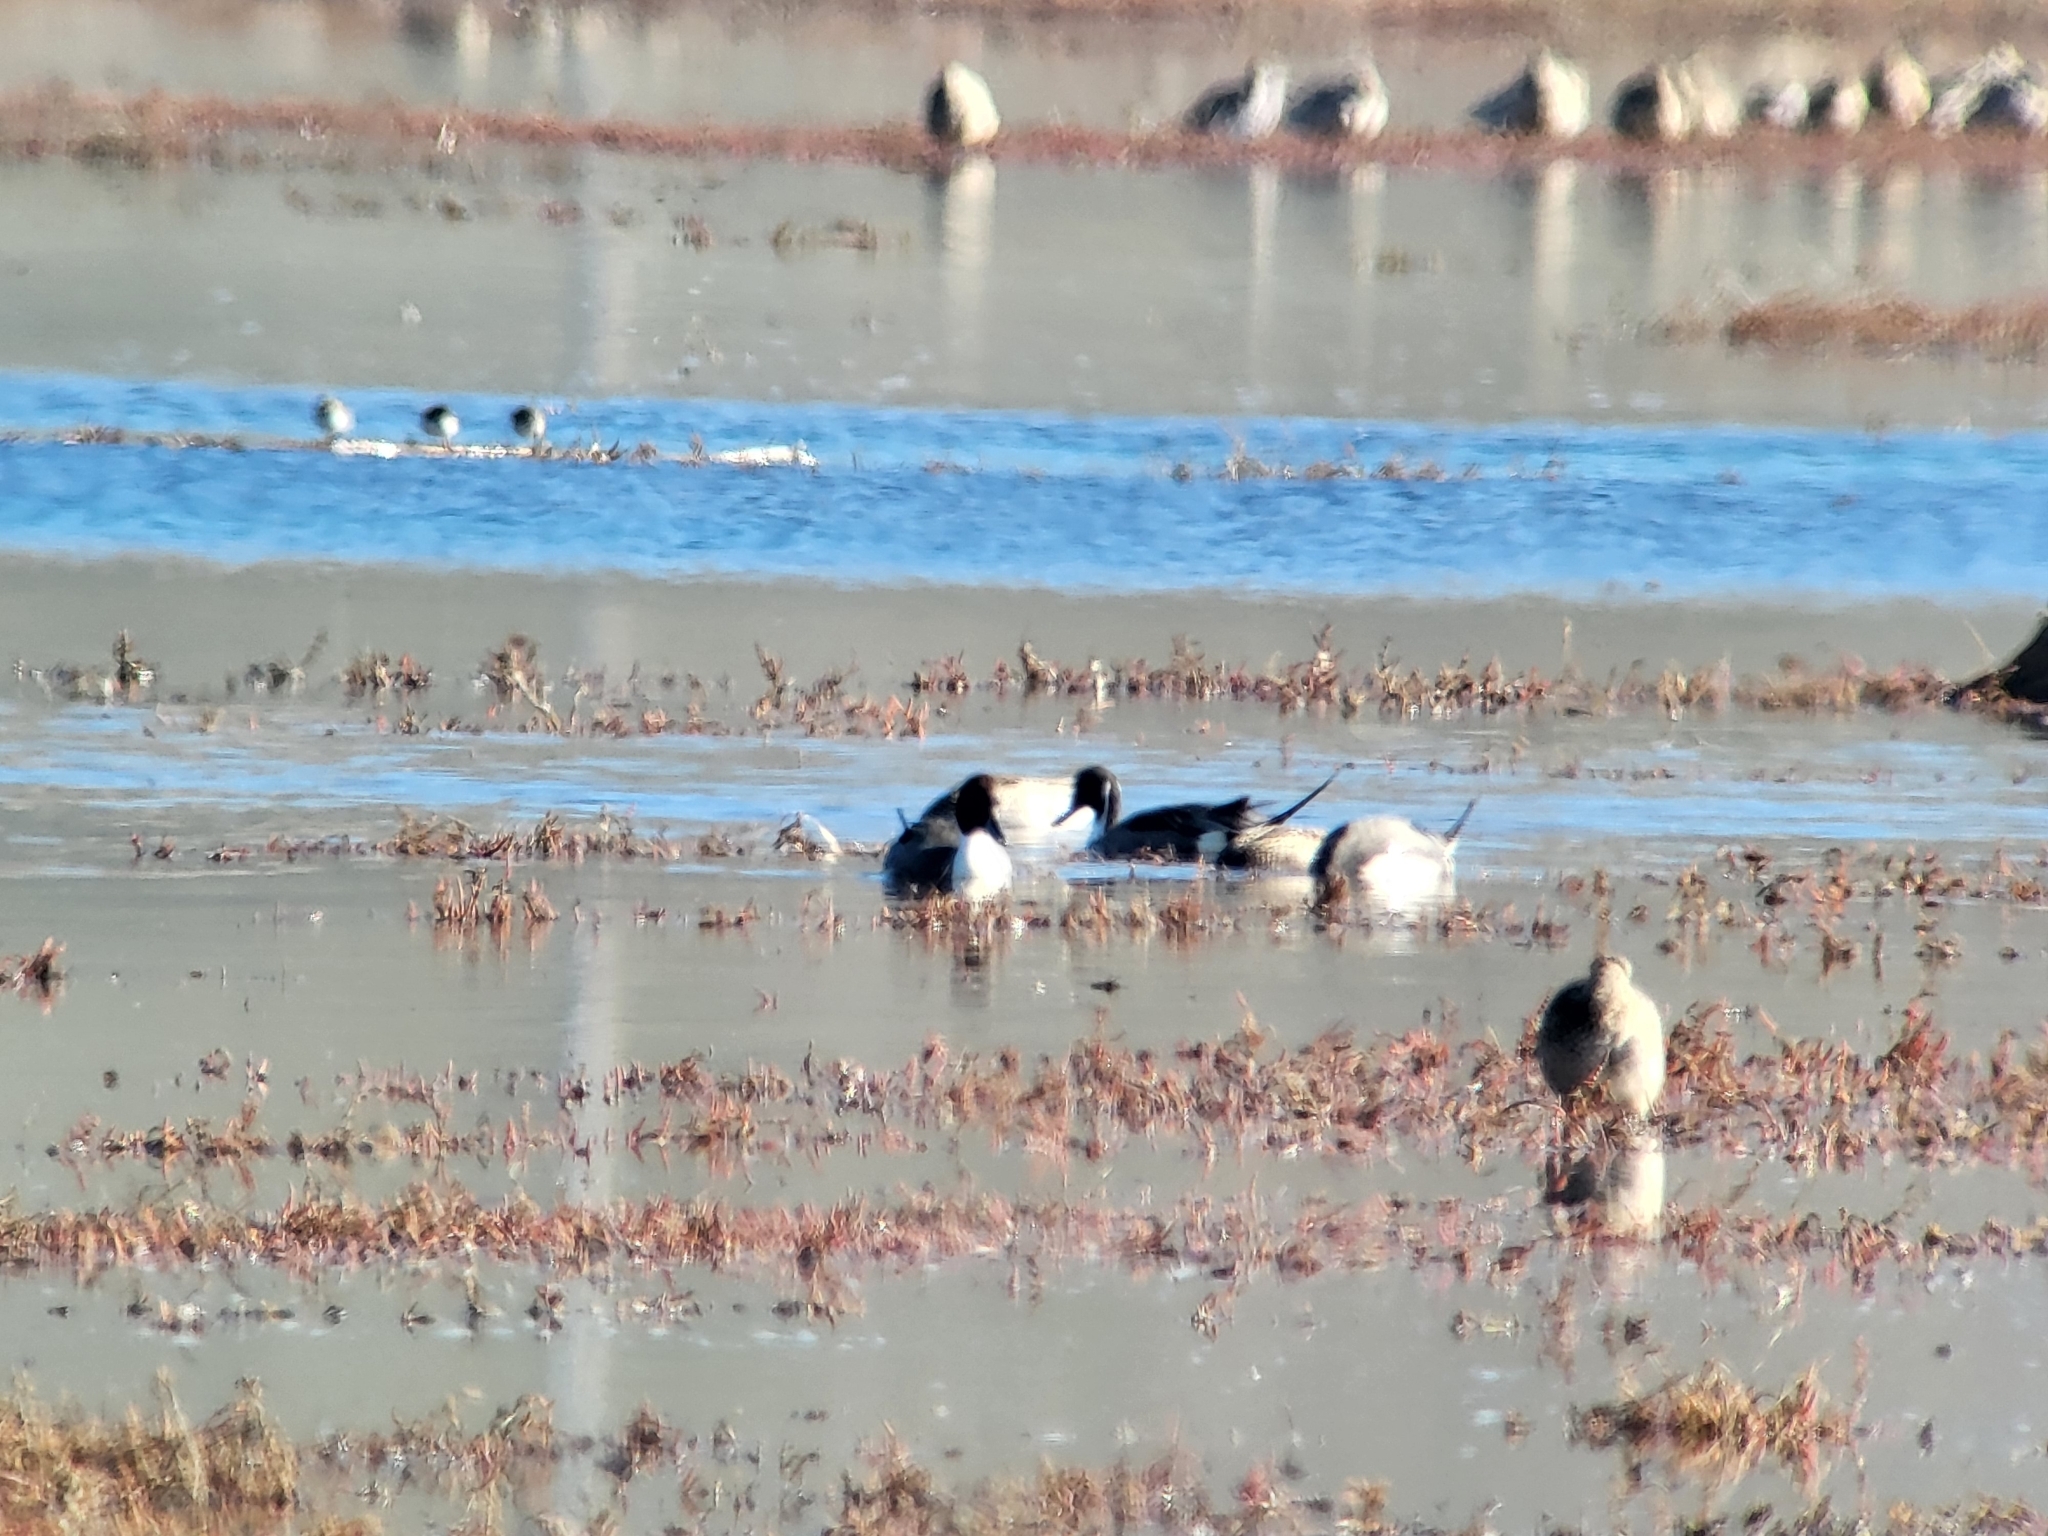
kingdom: Animalia
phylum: Chordata
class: Aves
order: Anseriformes
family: Anatidae
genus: Anas
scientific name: Anas acuta
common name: Northern pintail
